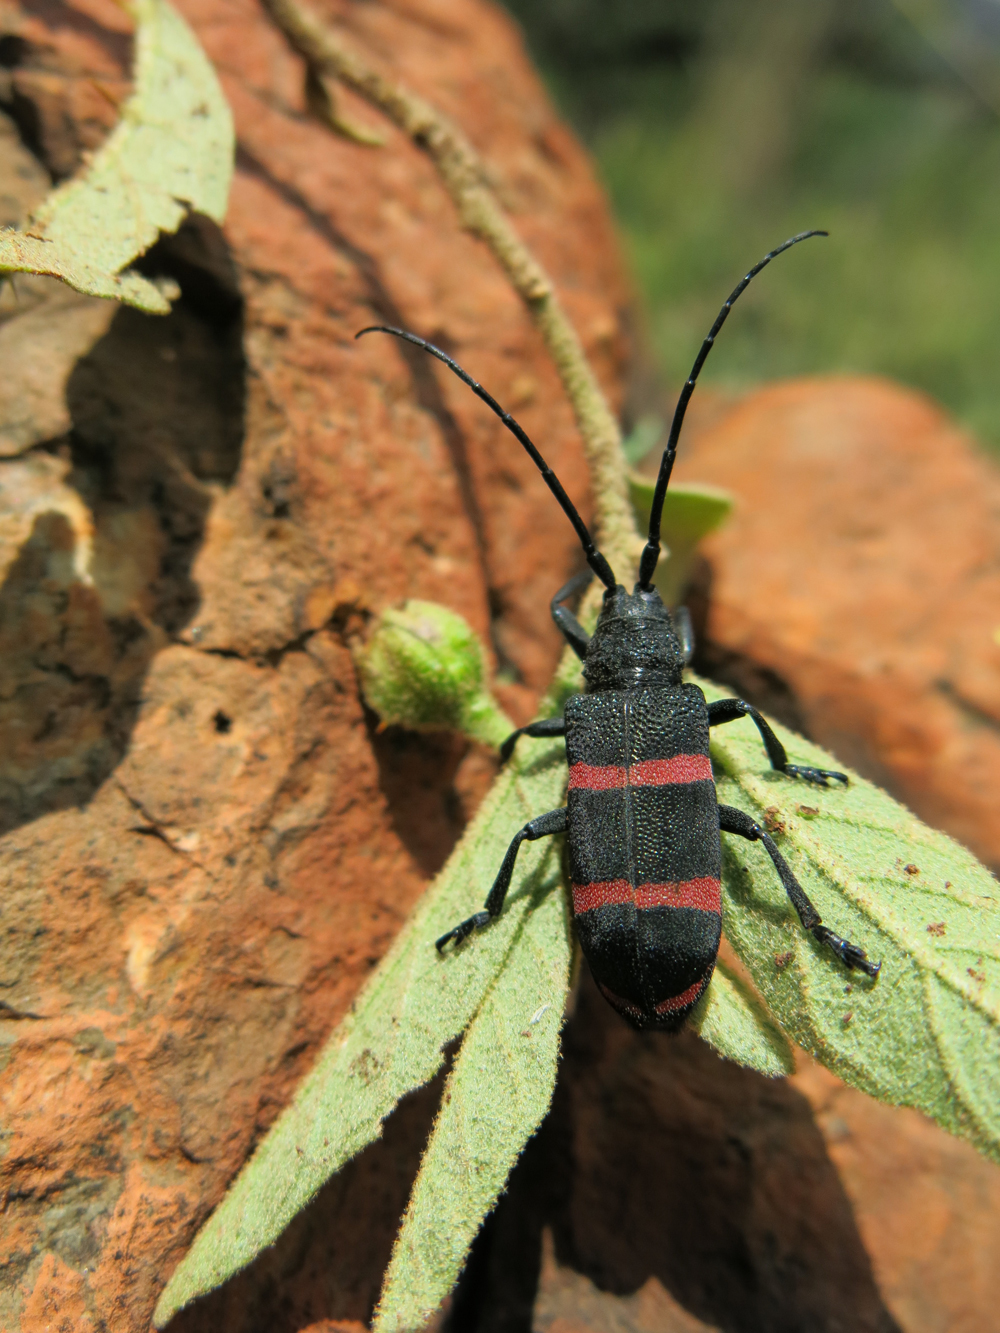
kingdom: Animalia
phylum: Arthropoda
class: Insecta
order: Coleoptera
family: Cerambycidae
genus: Ceroplesis
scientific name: Ceroplesis orientalis
